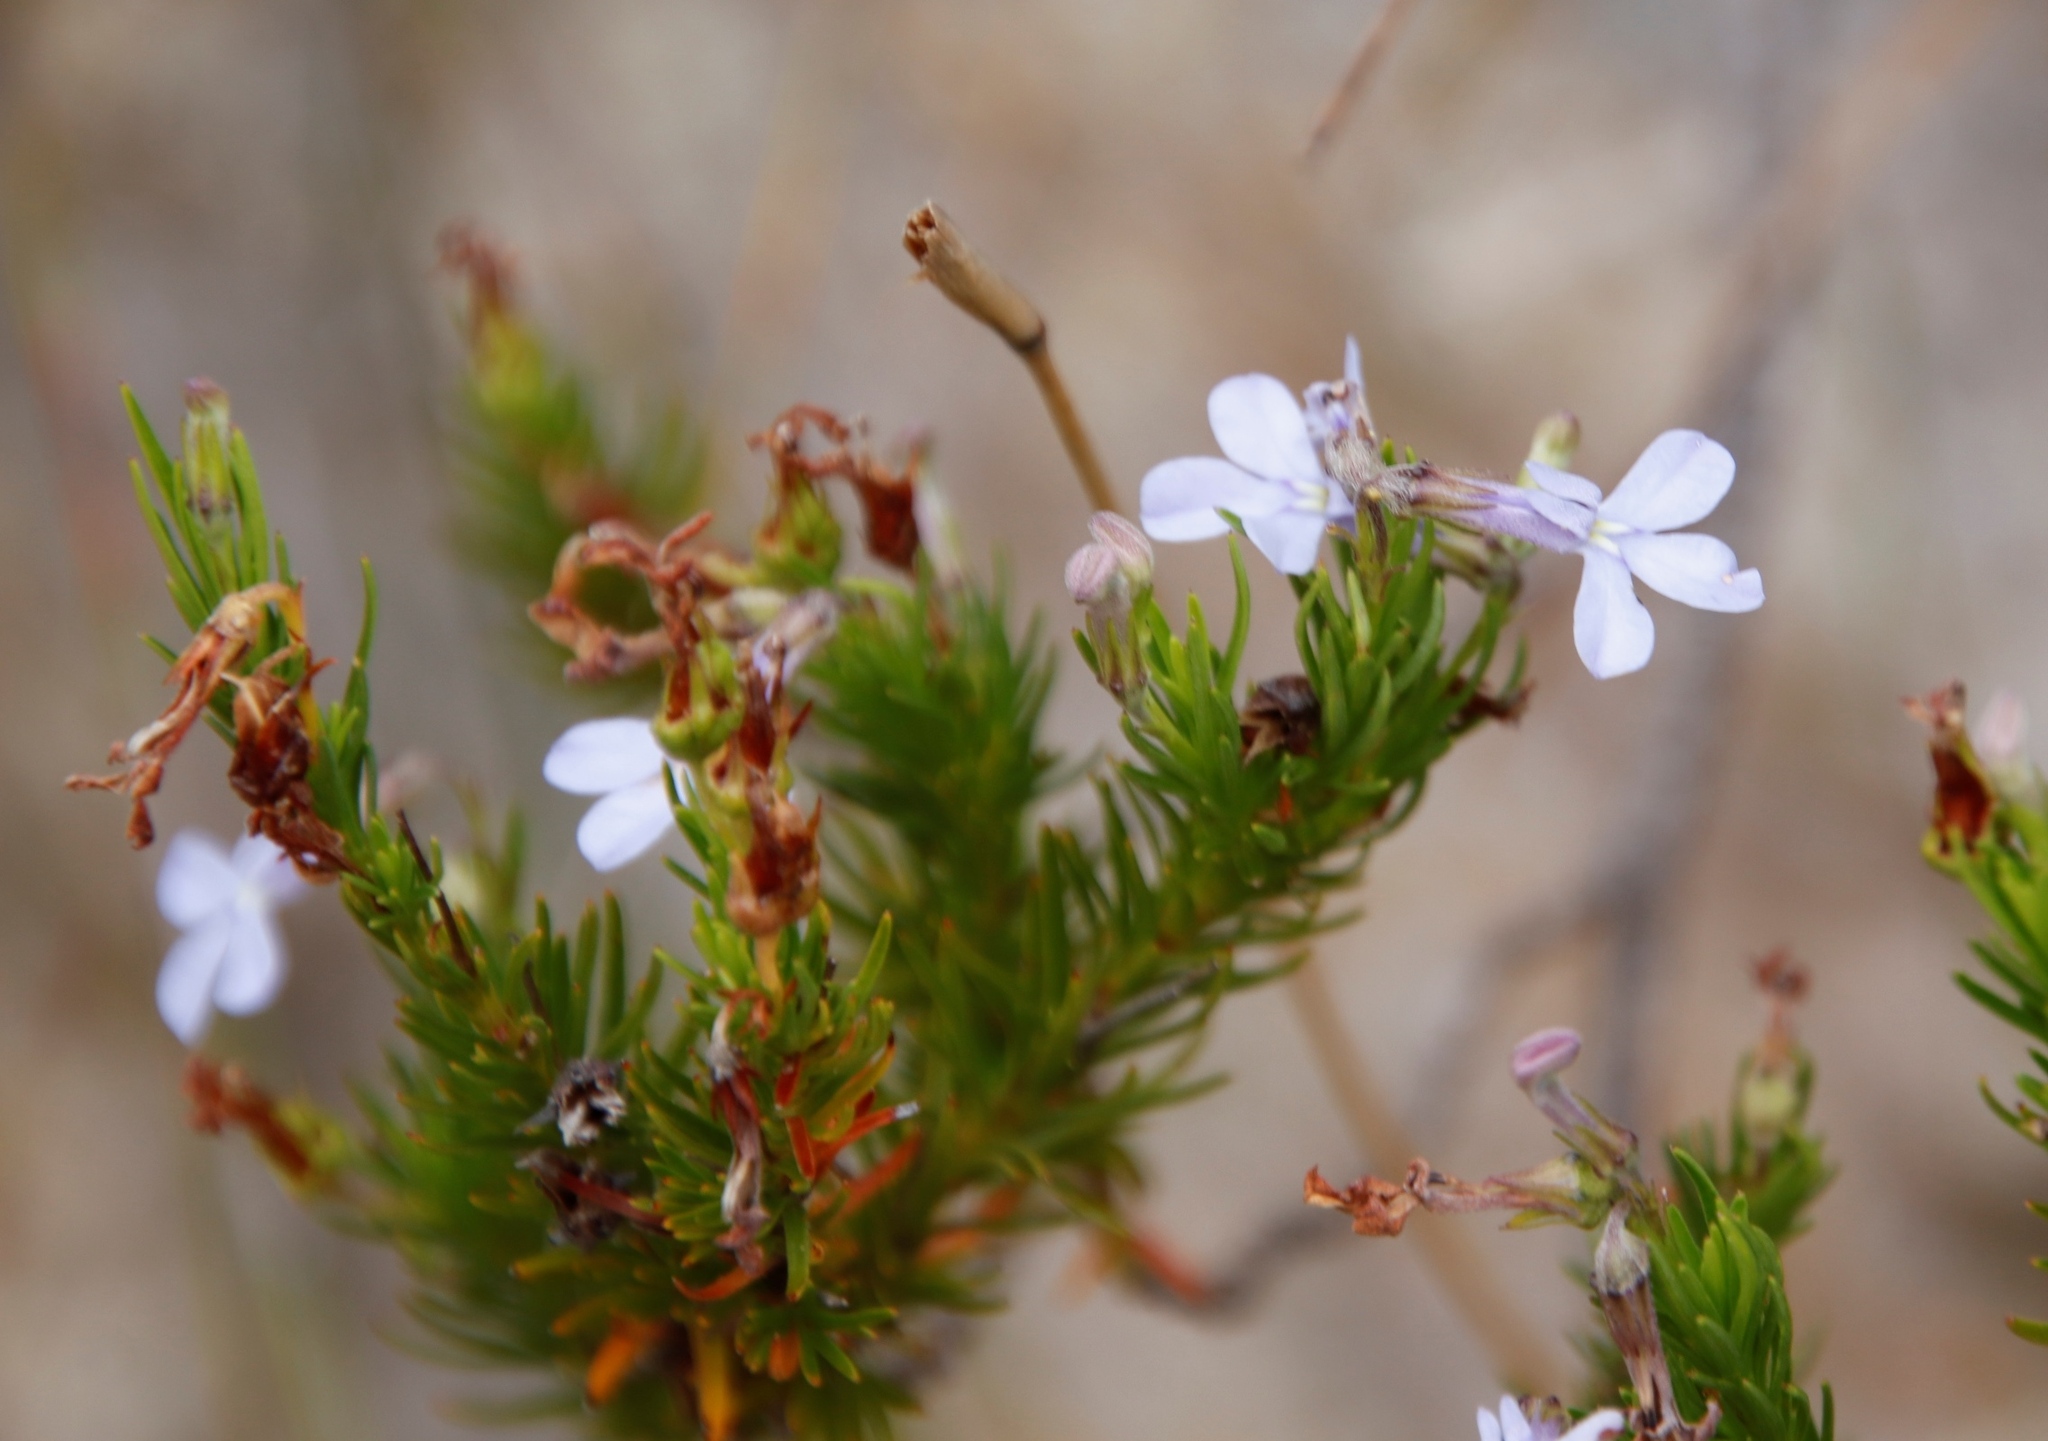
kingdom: Plantae
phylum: Tracheophyta
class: Magnoliopsida
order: Asterales
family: Campanulaceae
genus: Lobelia
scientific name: Lobelia pinifolia
